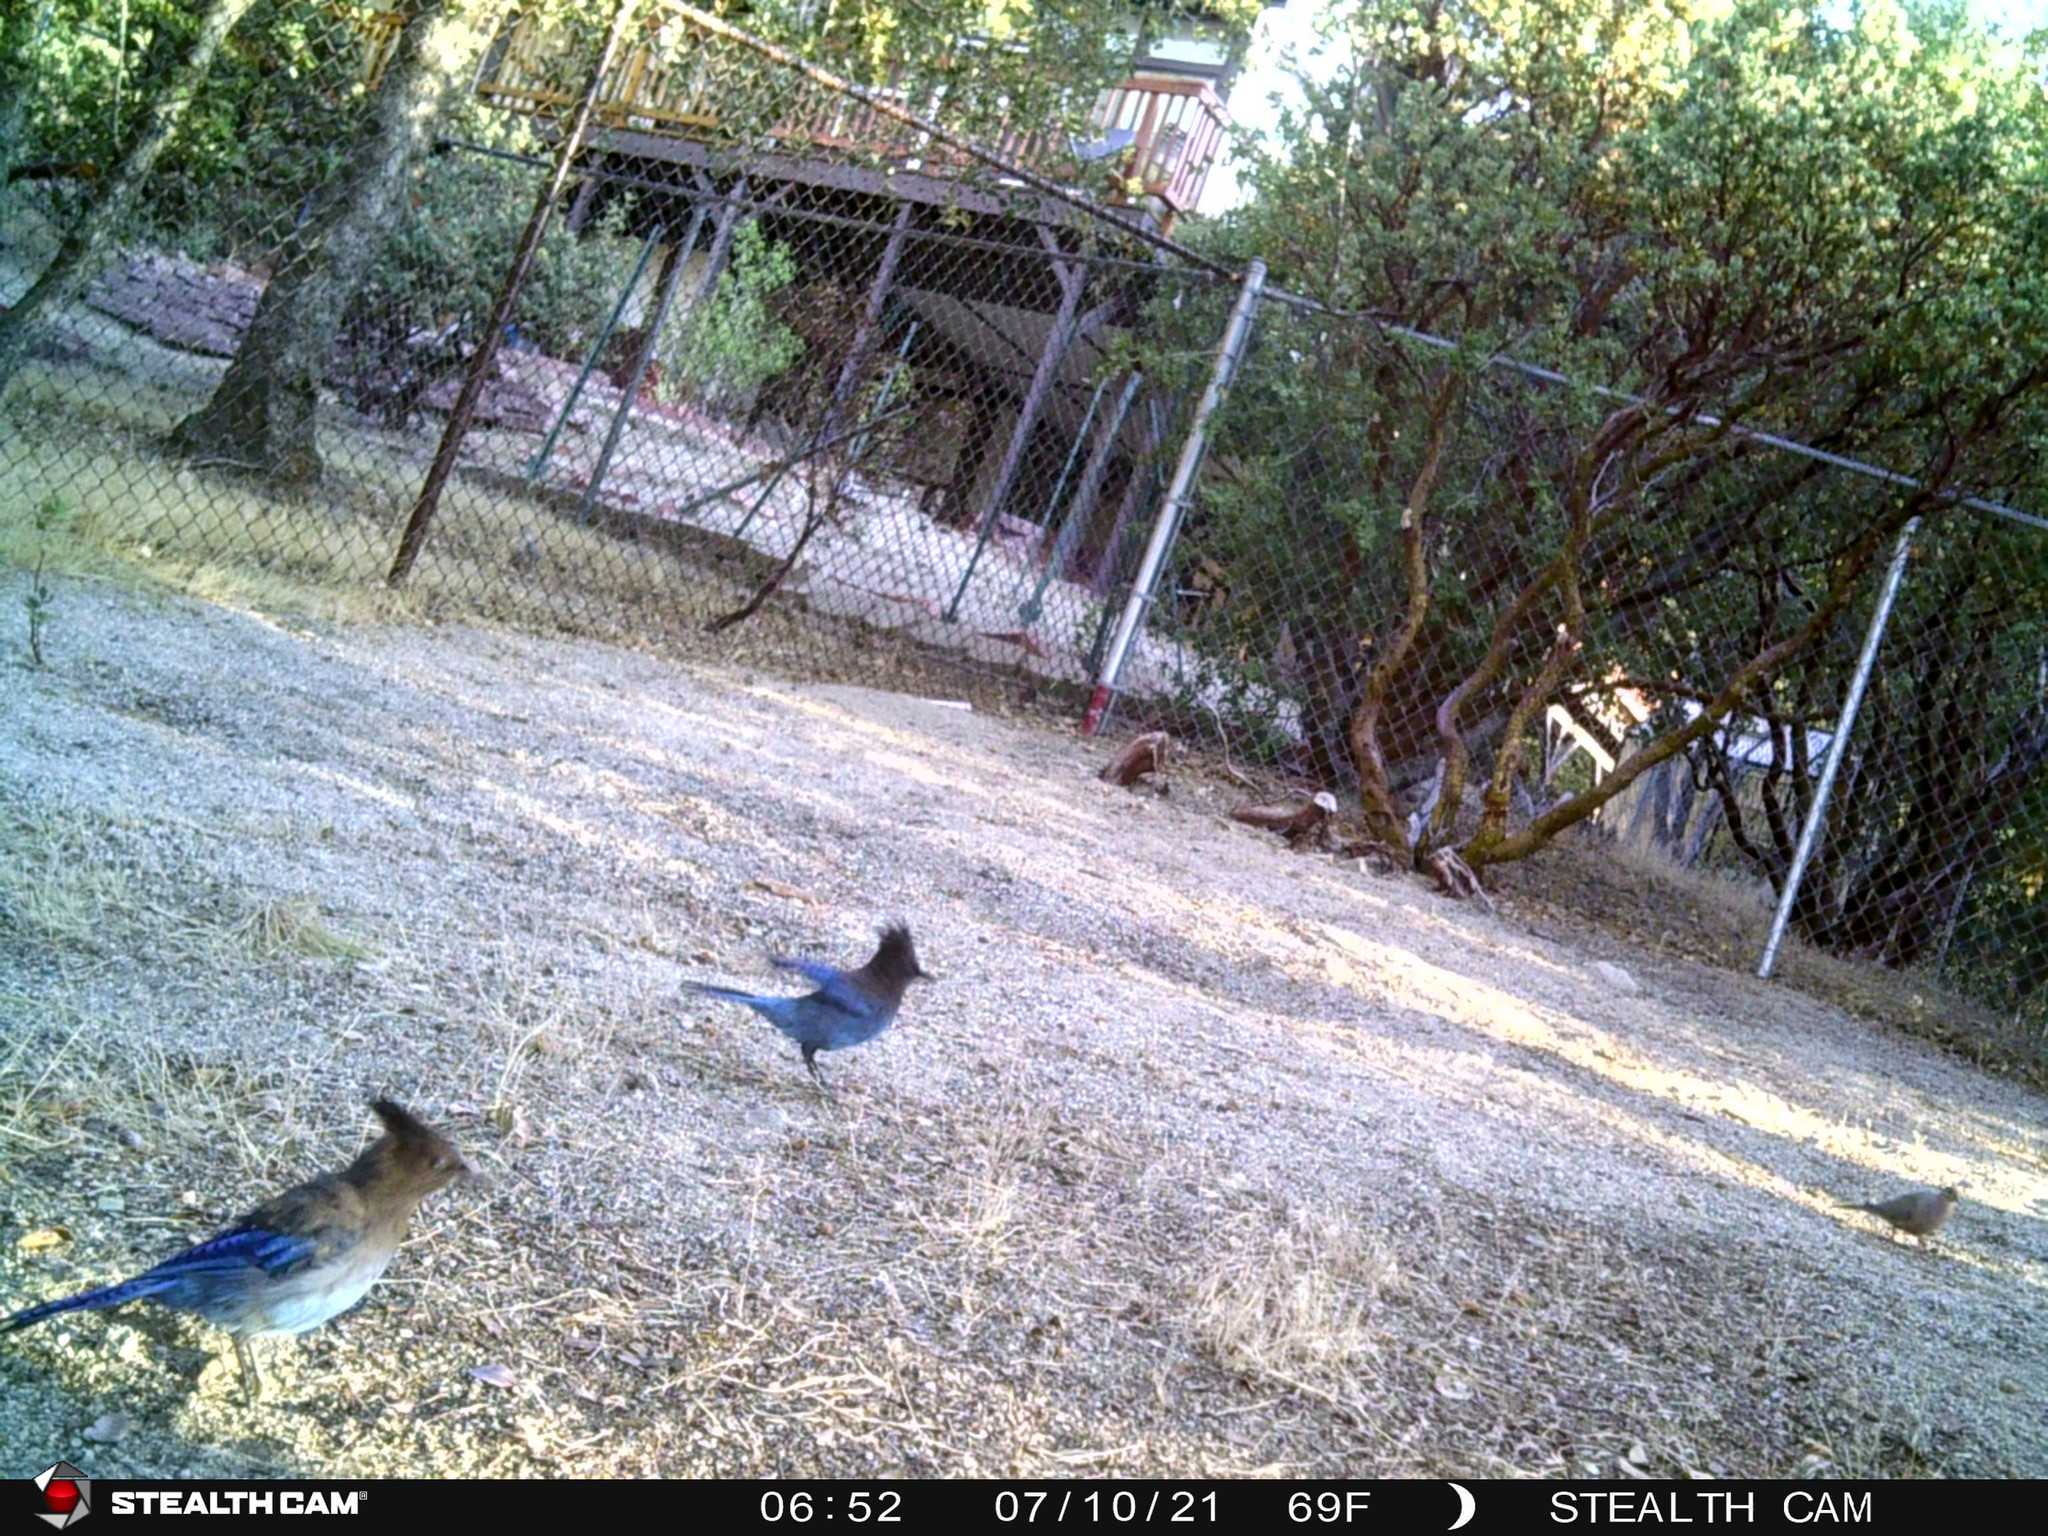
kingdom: Animalia
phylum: Chordata
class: Aves
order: Passeriformes
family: Corvidae
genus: Cyanocitta
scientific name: Cyanocitta stelleri
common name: Steller's jay
